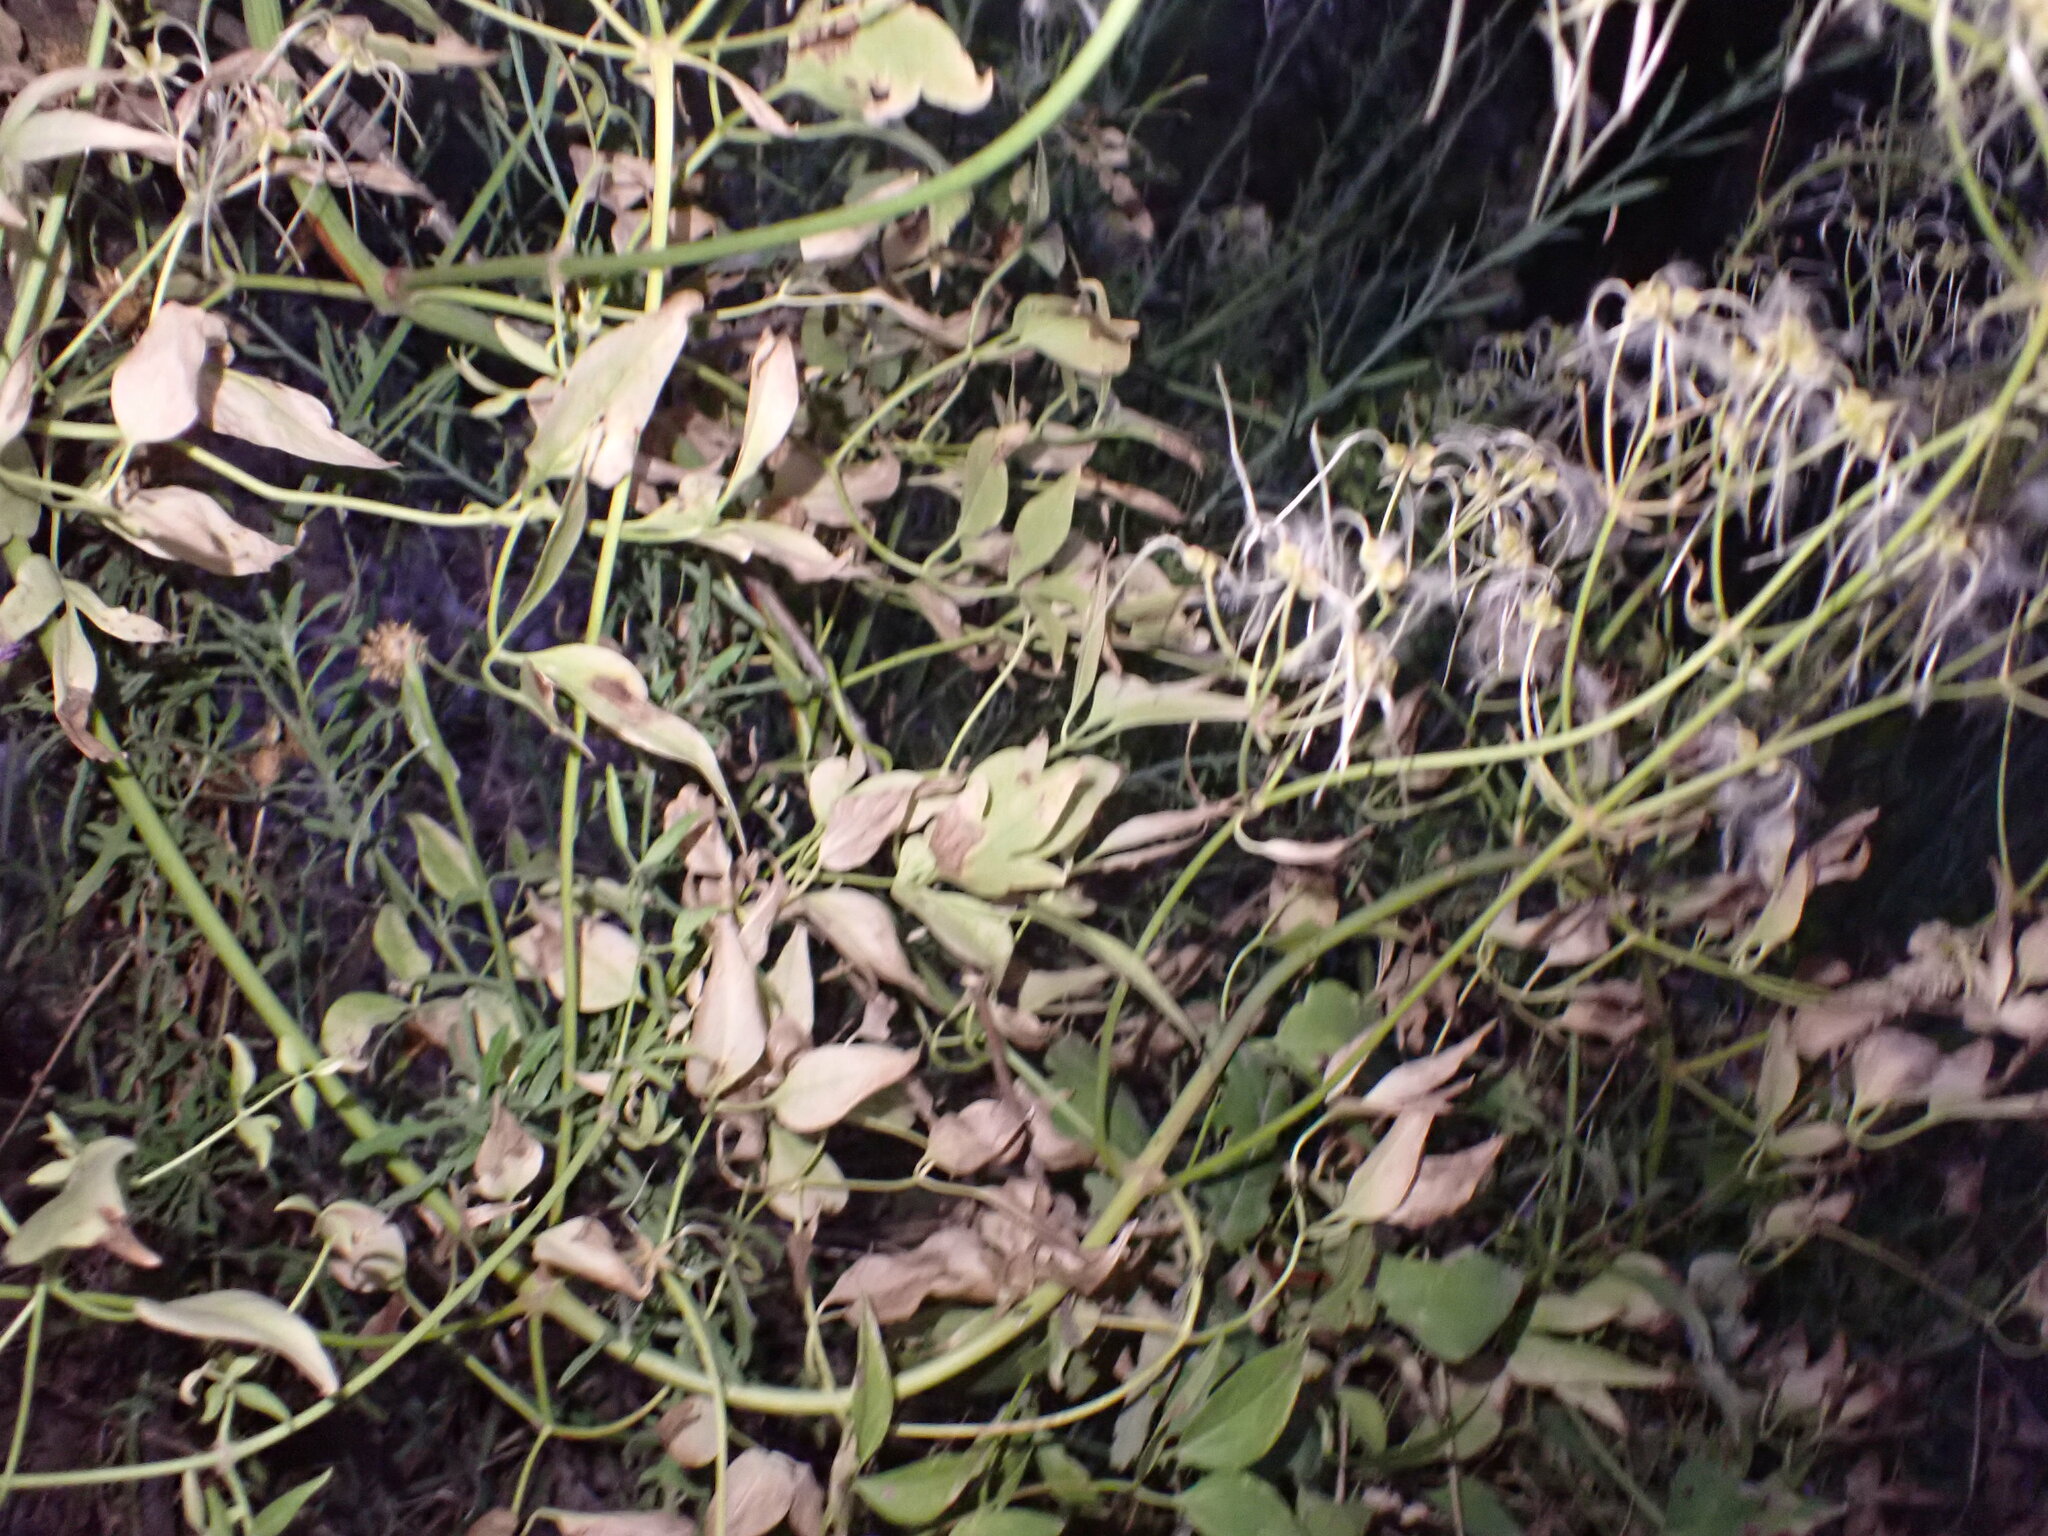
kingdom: Plantae
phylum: Tracheophyta
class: Magnoliopsida
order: Ranunculales
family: Ranunculaceae
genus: Clematis
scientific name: Clematis flammula
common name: Virgin's-bower
